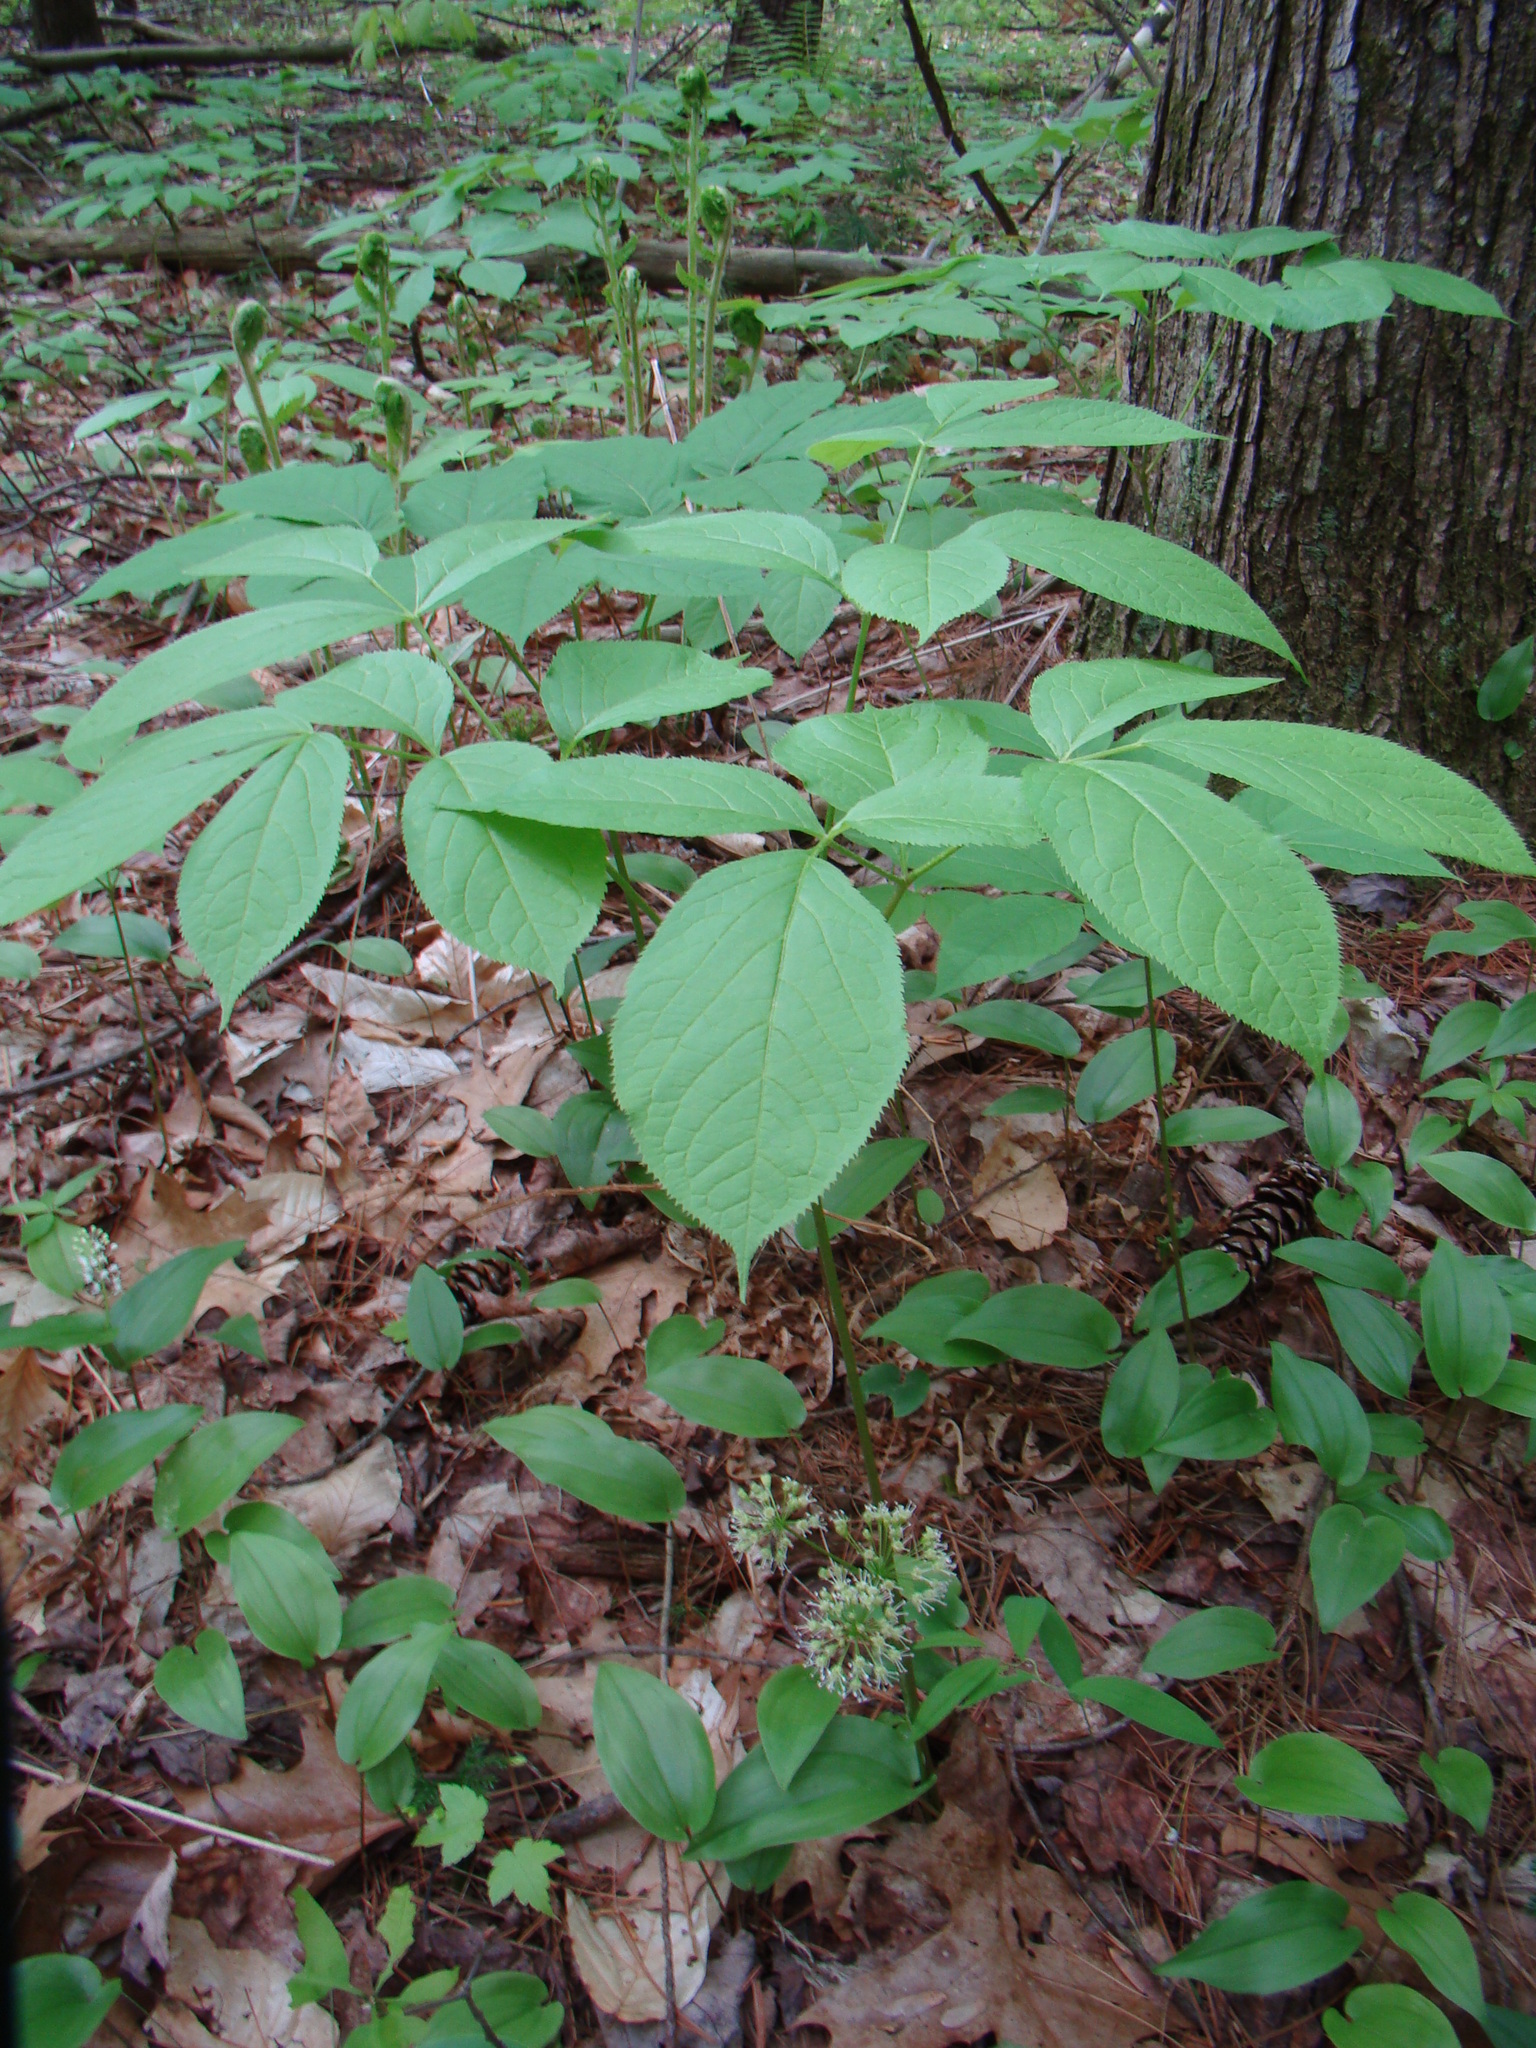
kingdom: Plantae
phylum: Tracheophyta
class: Magnoliopsida
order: Apiales
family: Araliaceae
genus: Aralia
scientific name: Aralia nudicaulis
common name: Wild sarsaparilla
